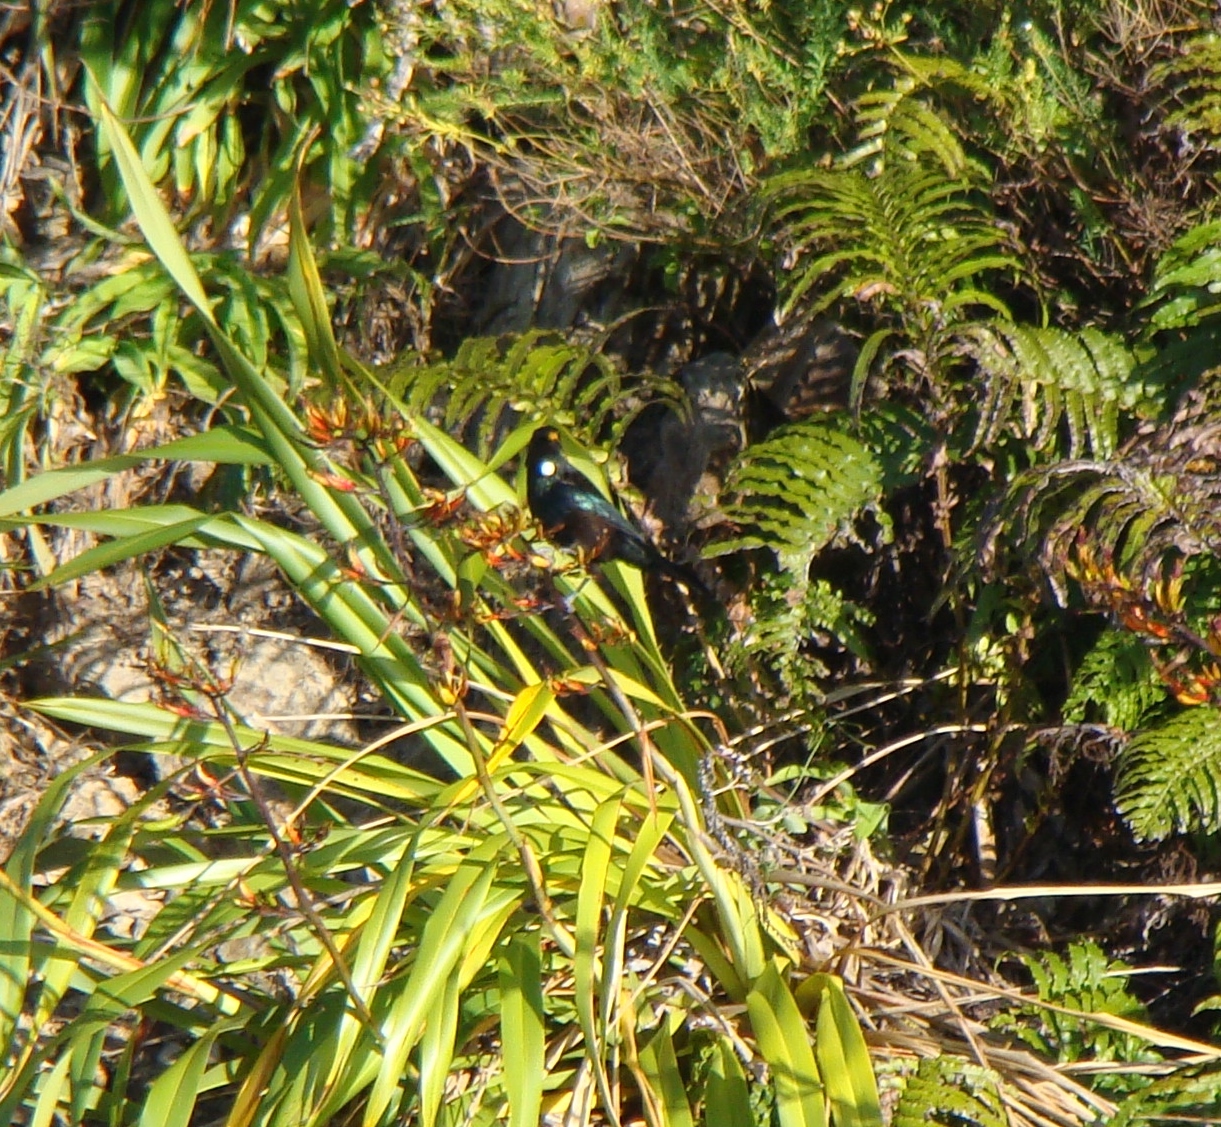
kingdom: Animalia
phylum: Chordata
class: Aves
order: Passeriformes
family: Meliphagidae
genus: Prosthemadera
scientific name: Prosthemadera novaeseelandiae
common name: Tui
